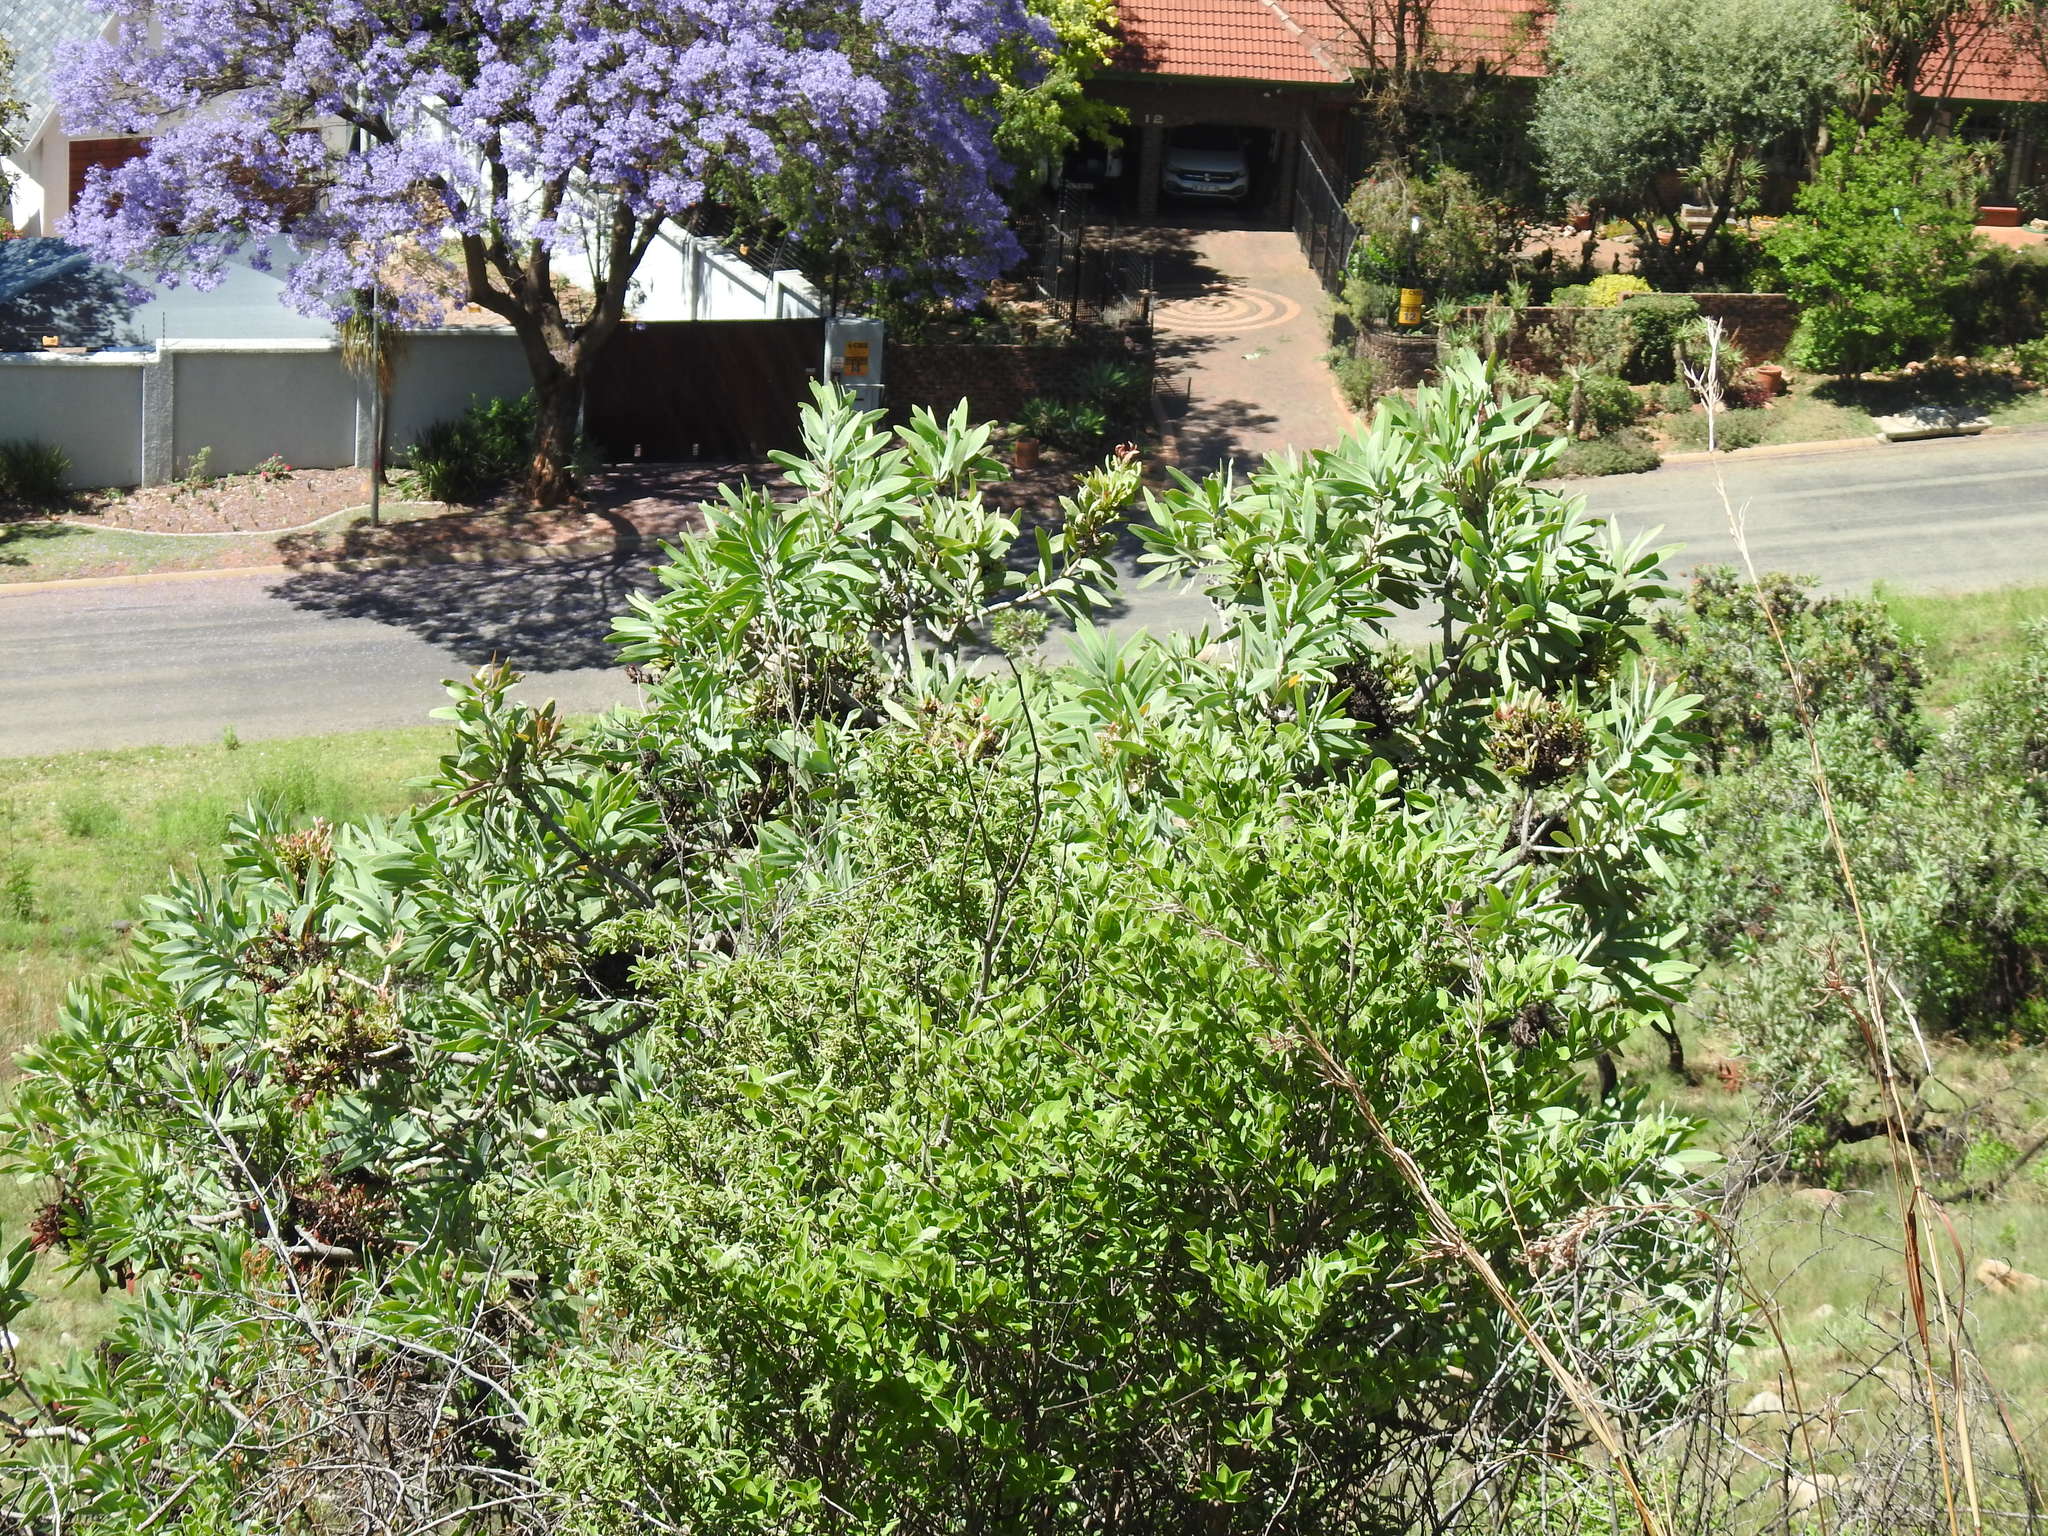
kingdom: Bacteria
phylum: Firmicutes
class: Bacilli
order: Acholeplasmatales
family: Acholeplasmataceae
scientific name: Acholeplasmataceae
